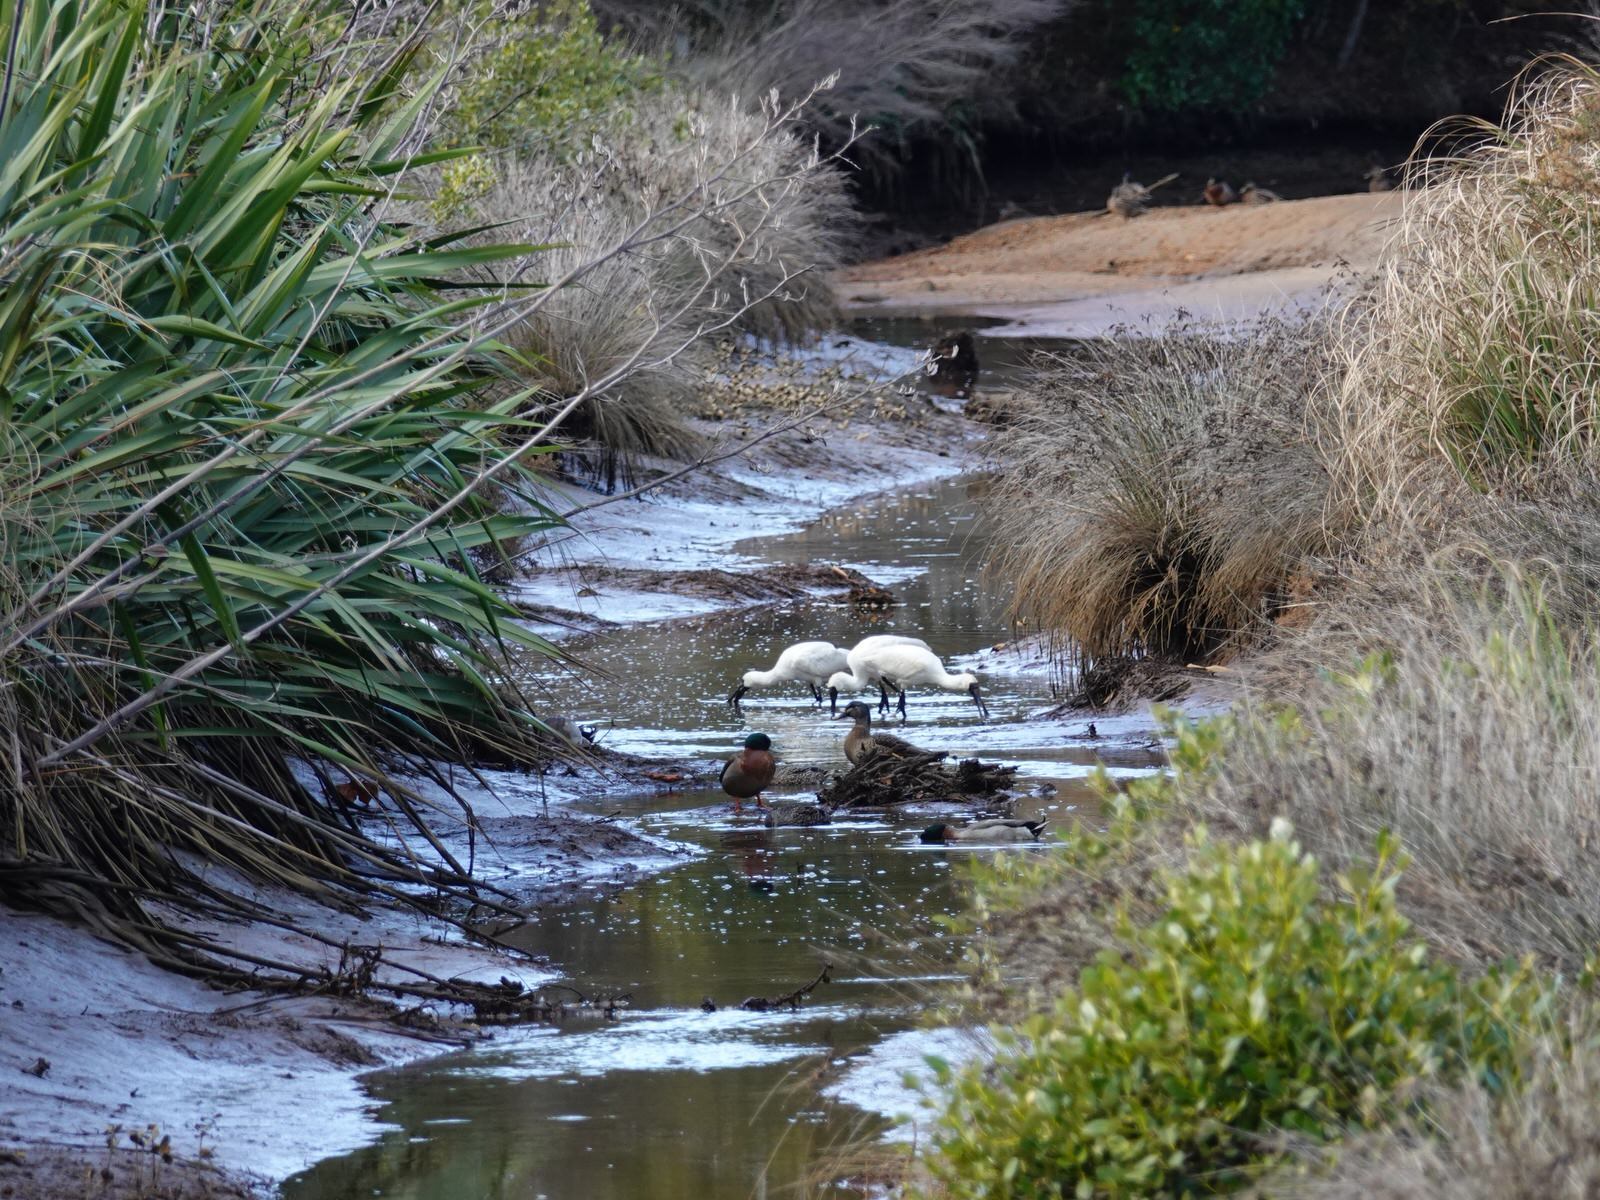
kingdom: Animalia
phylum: Chordata
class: Aves
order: Pelecaniformes
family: Threskiornithidae
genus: Platalea
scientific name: Platalea regia
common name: Royal spoonbill
